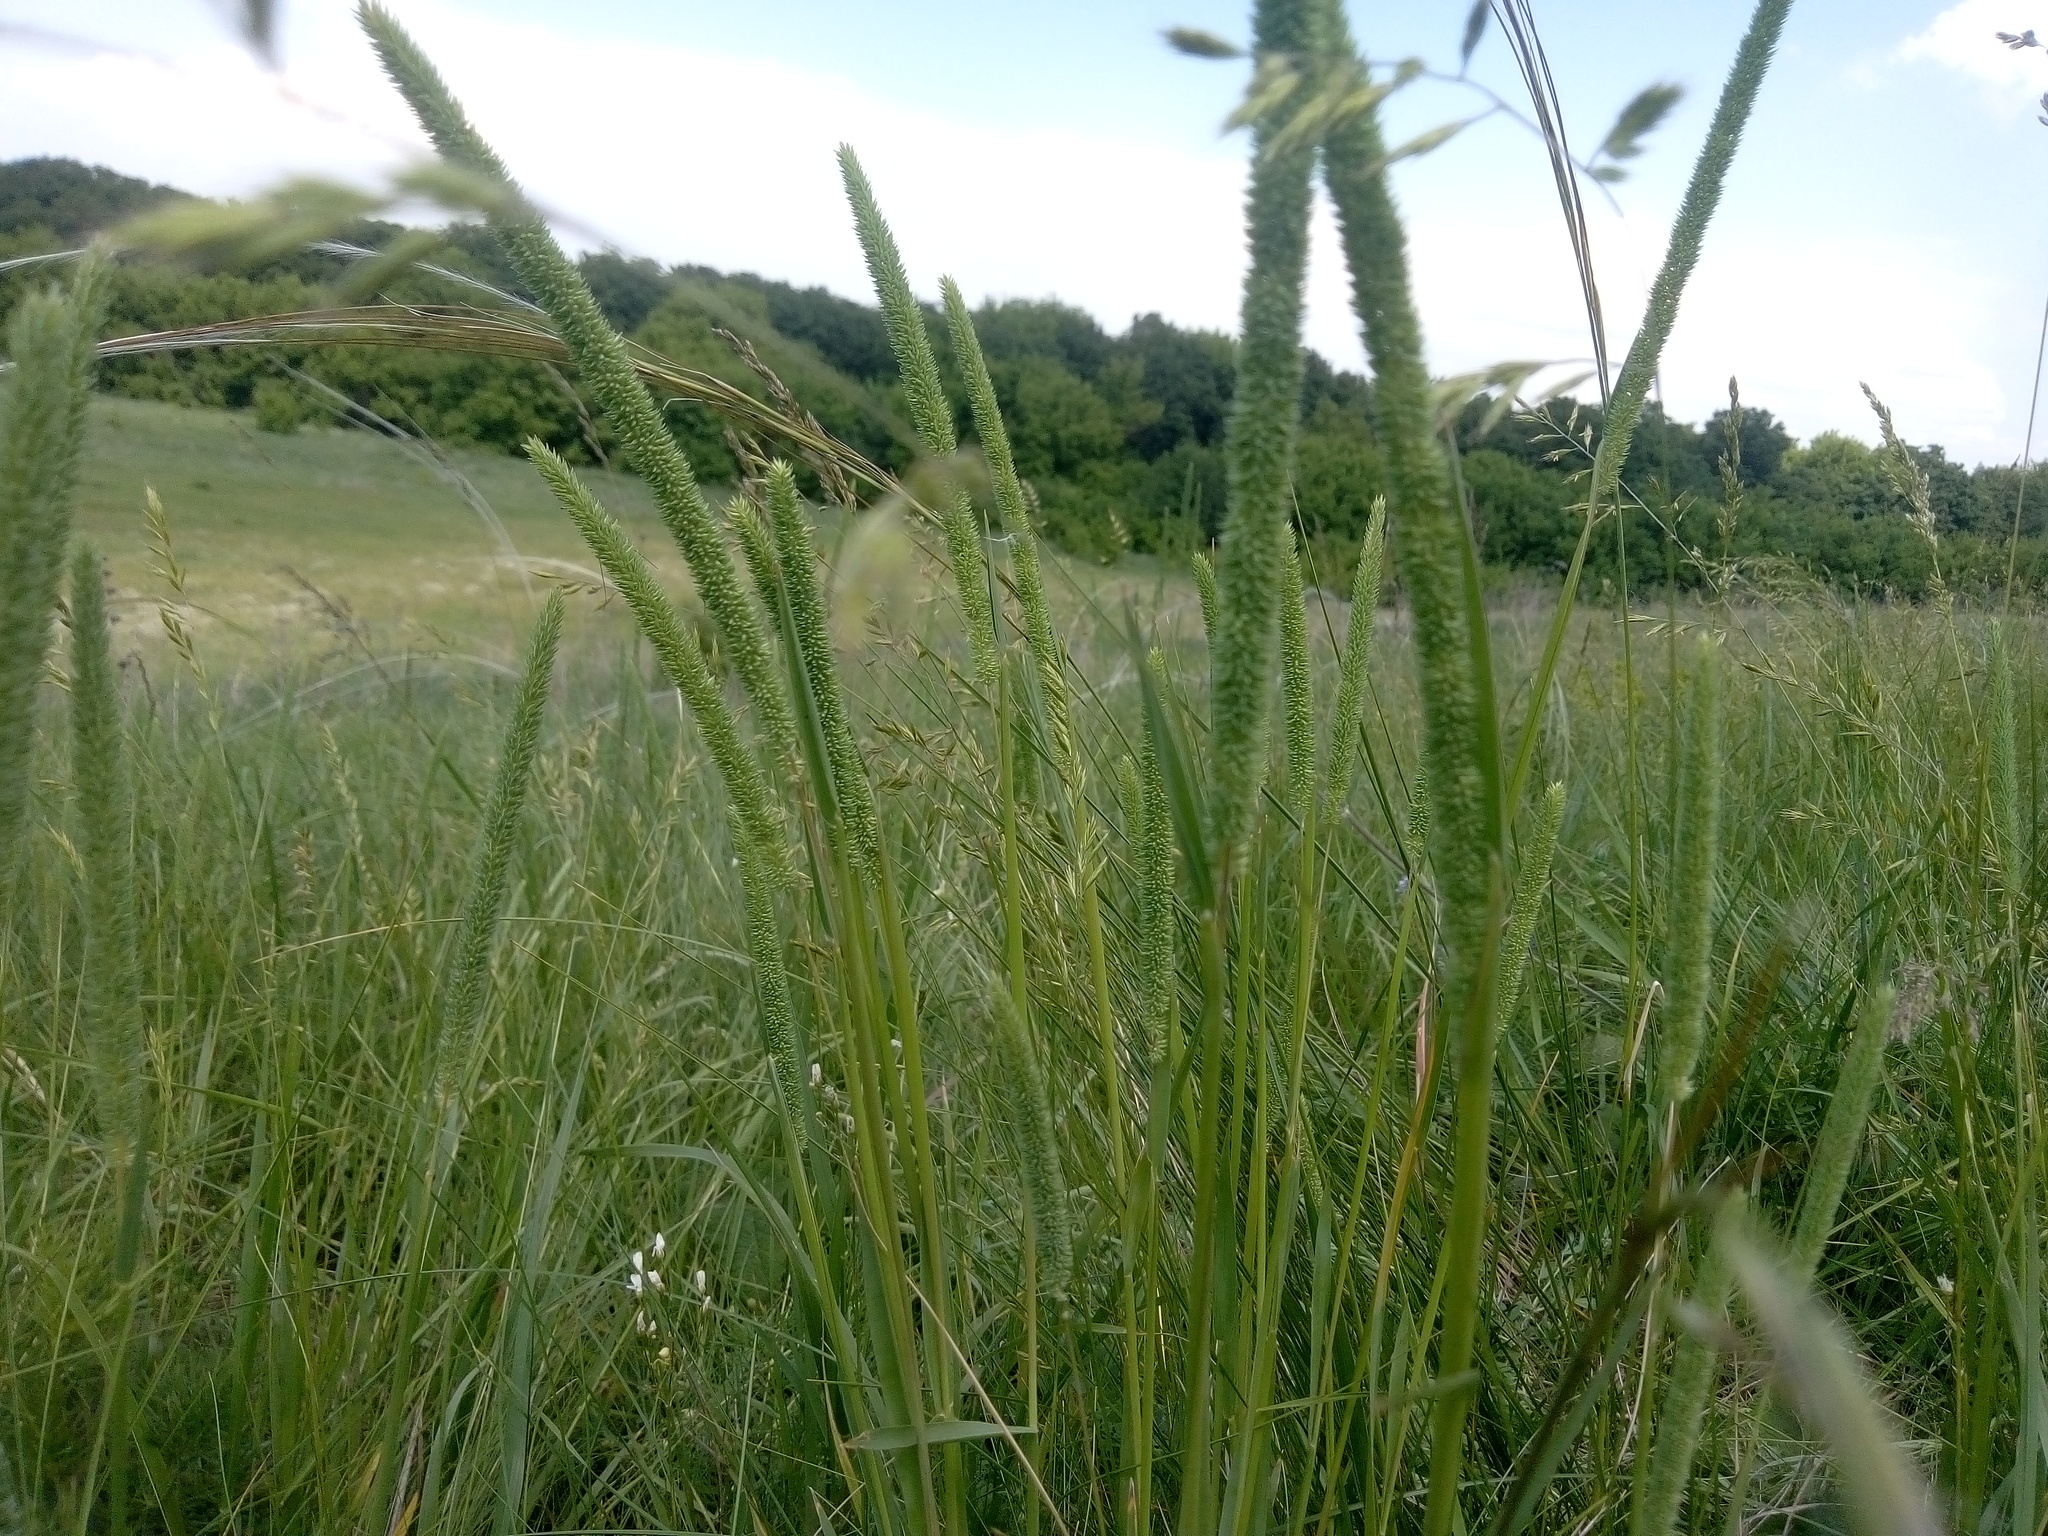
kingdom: Plantae
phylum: Tracheophyta
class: Liliopsida
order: Poales
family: Poaceae
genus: Phleum
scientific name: Phleum phleoides
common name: Purple-stem cat's-tail
